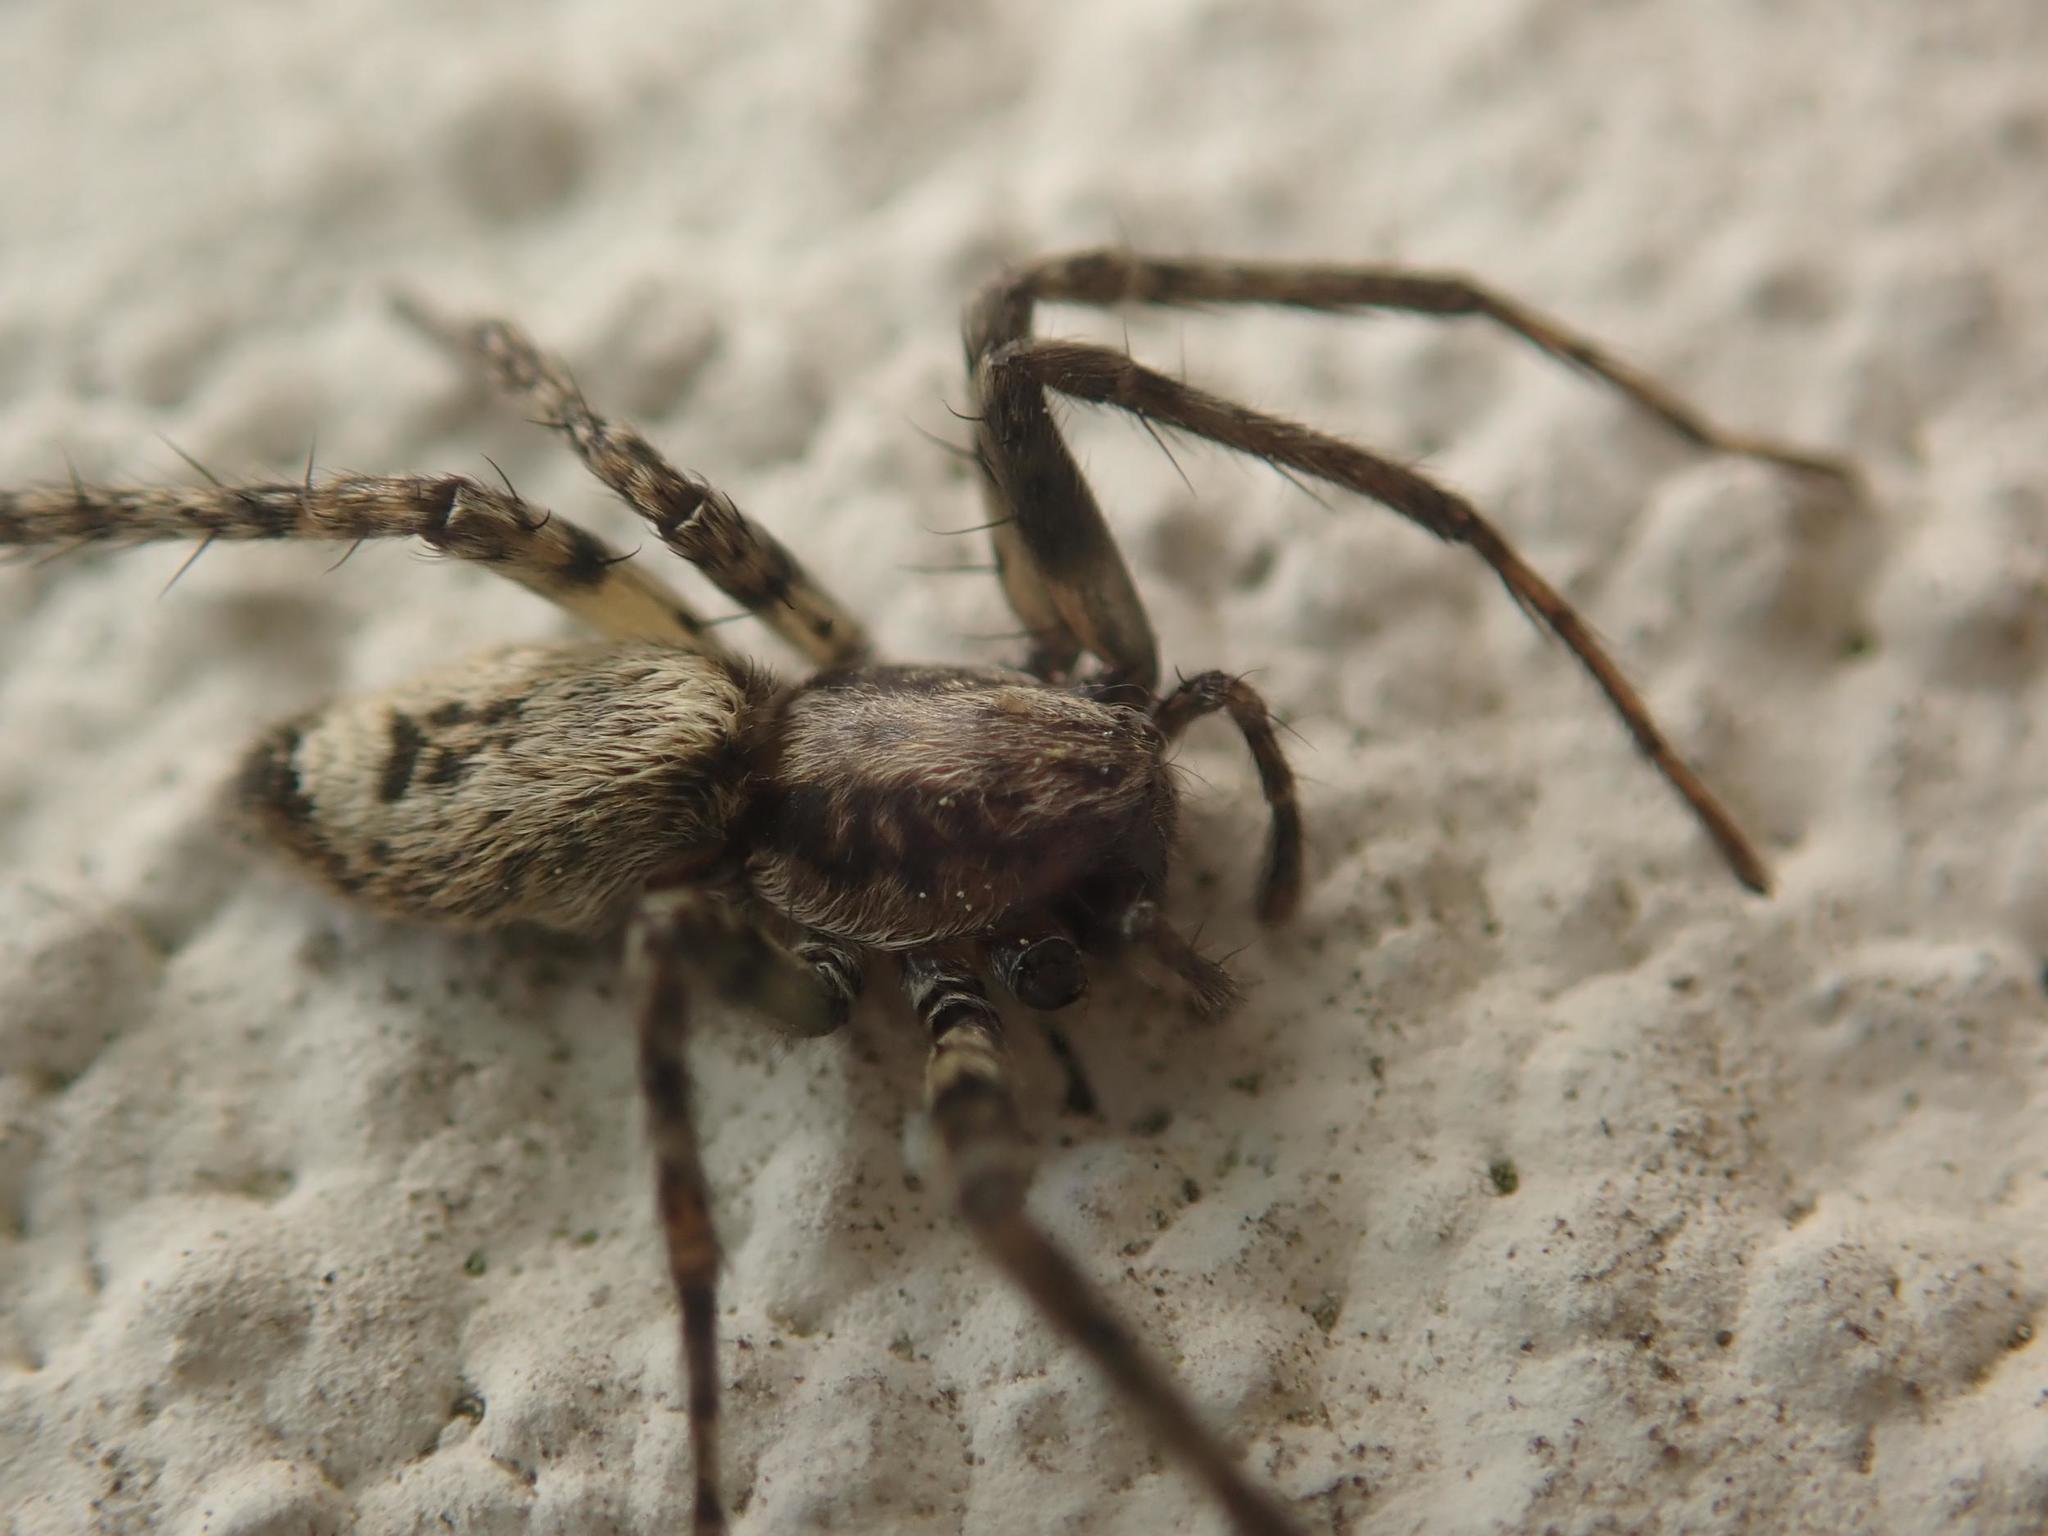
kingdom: Animalia
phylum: Arthropoda
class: Arachnida
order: Araneae
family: Anyphaenidae
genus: Anyphaena
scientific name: Anyphaena accentuata
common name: Buzzing spider
